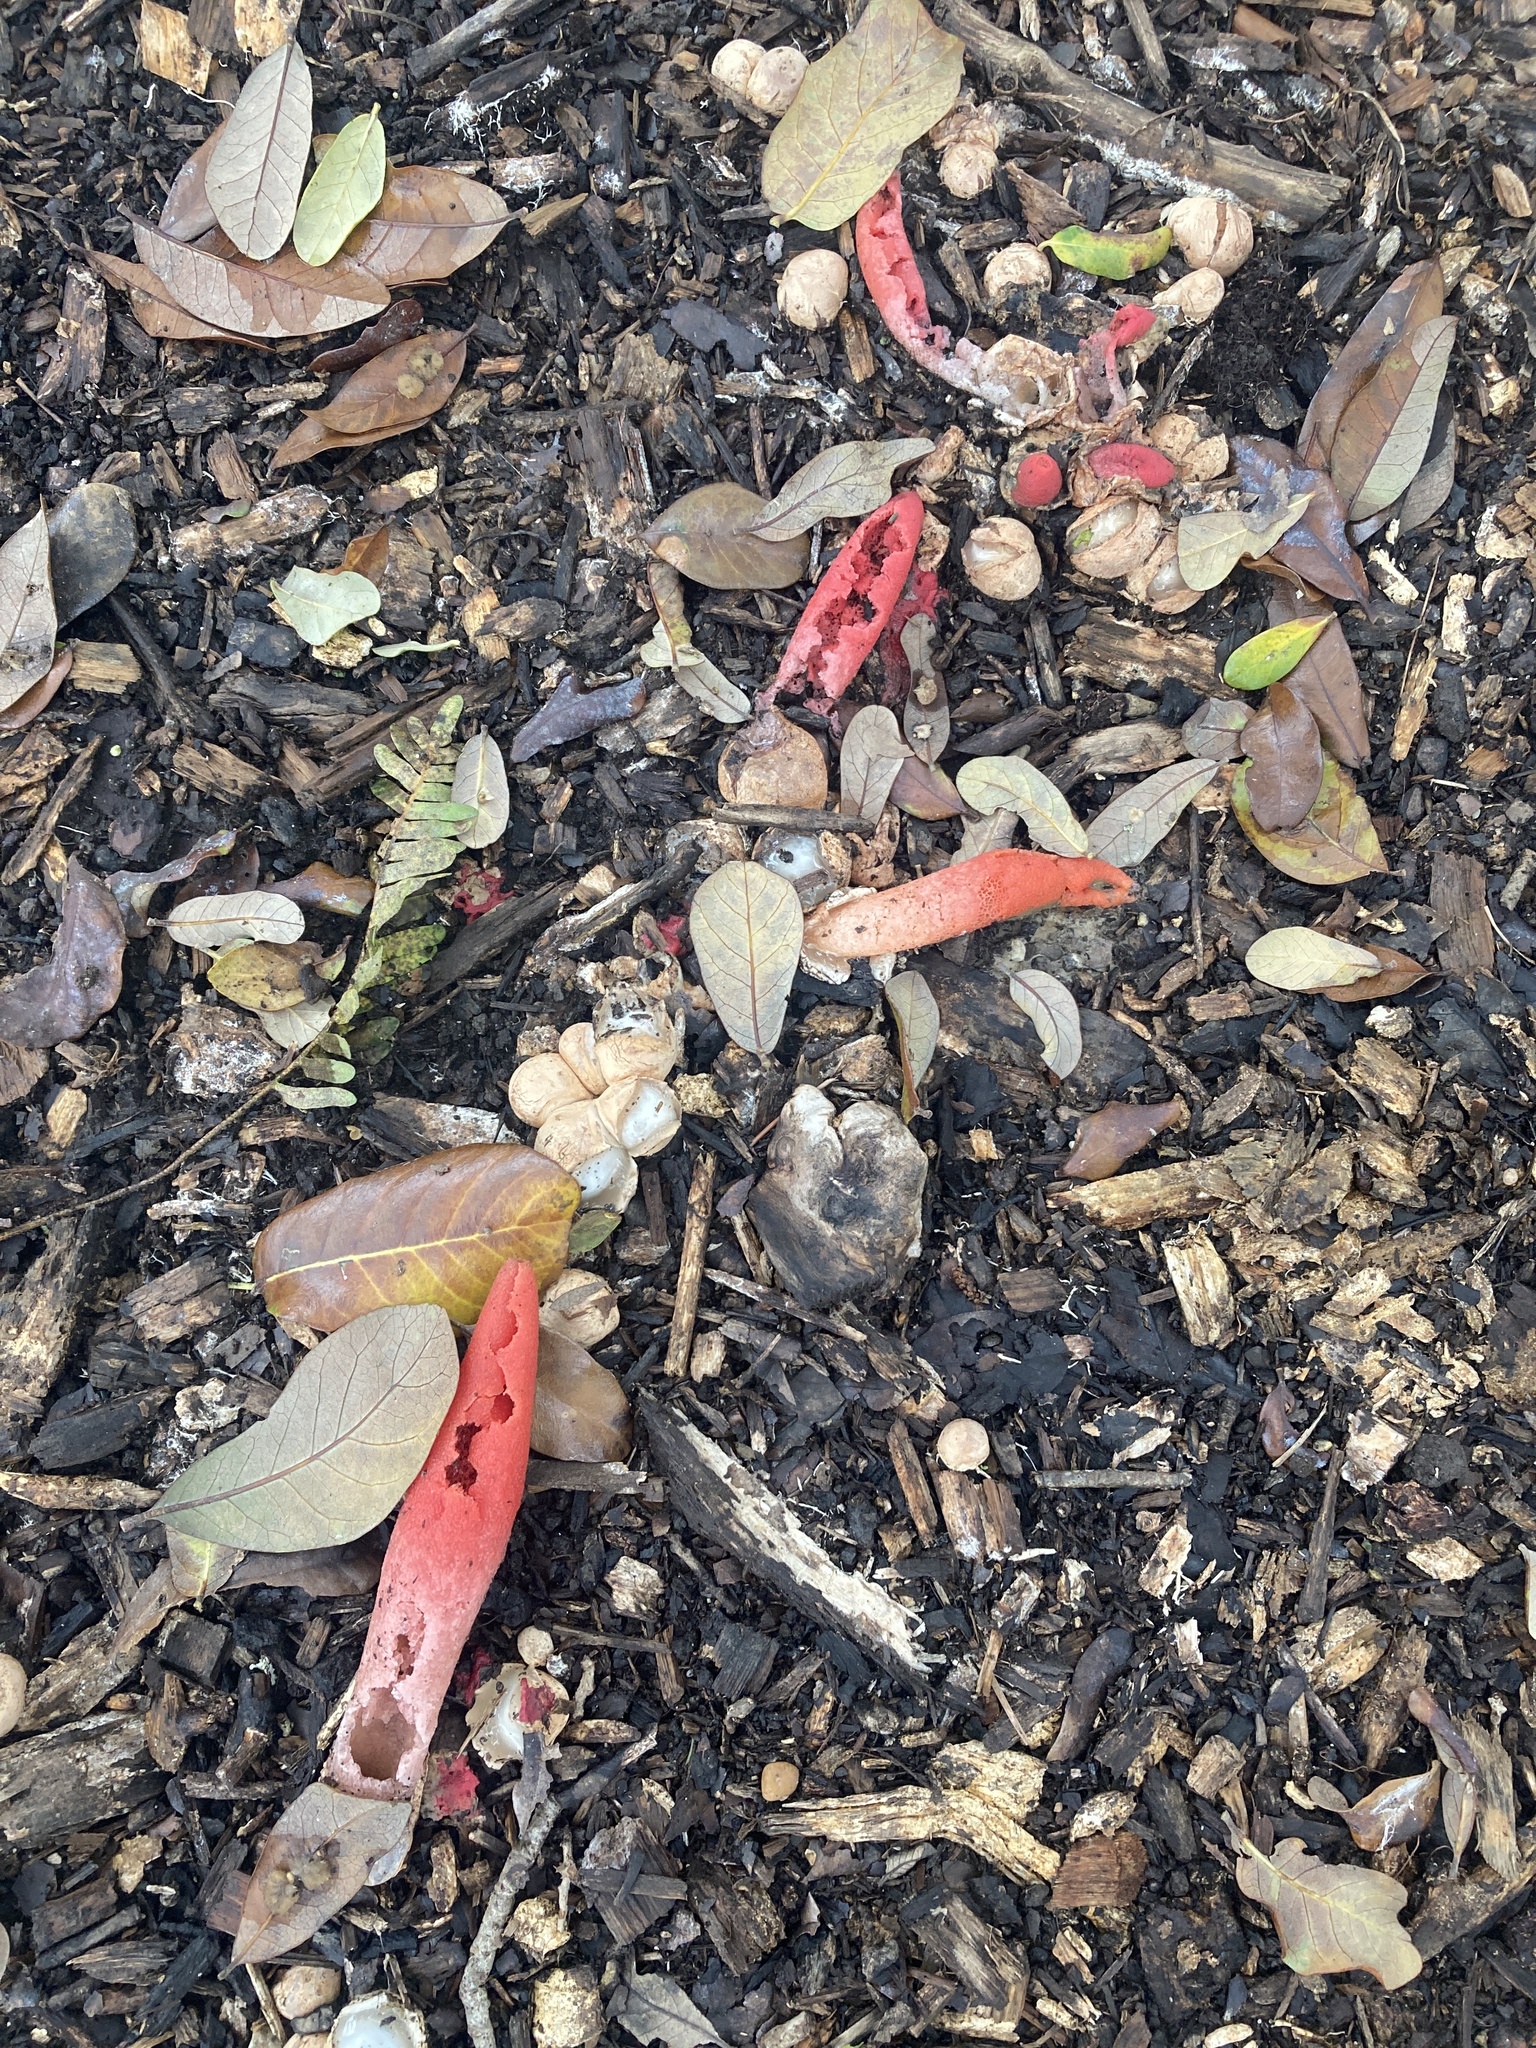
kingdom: Fungi
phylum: Basidiomycota
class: Agaricomycetes
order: Phallales
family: Phallaceae
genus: Mutinus
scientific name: Mutinus elegans
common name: Devil's dipstick
